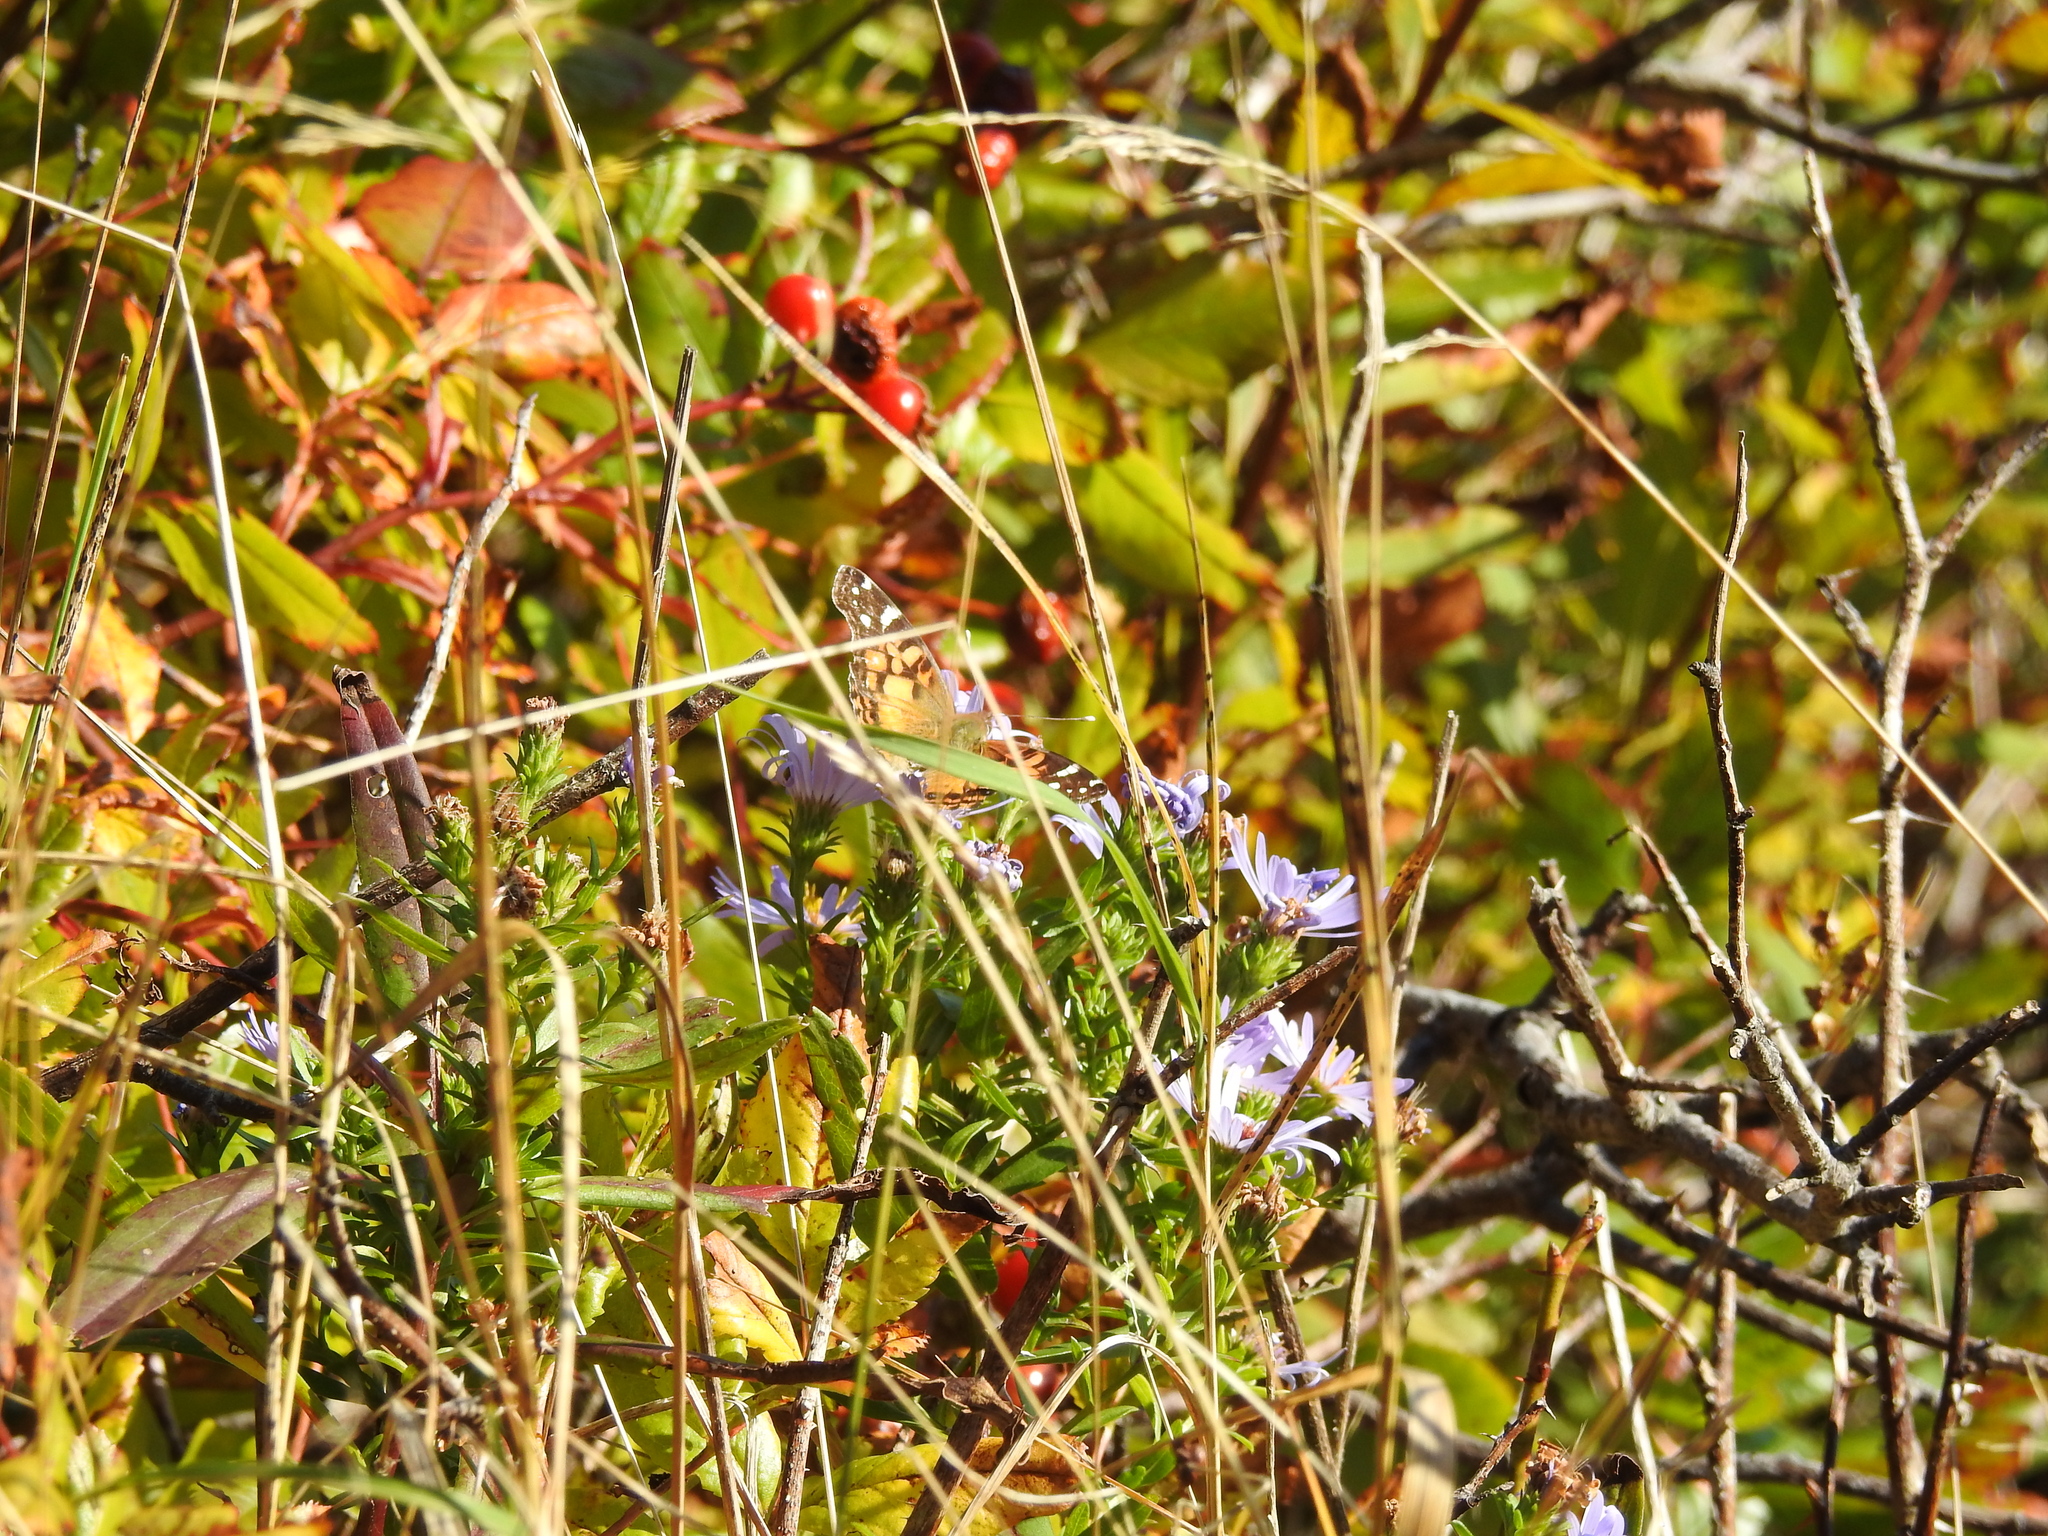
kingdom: Animalia
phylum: Arthropoda
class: Insecta
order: Lepidoptera
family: Nymphalidae
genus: Vanessa
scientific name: Vanessa virginiensis
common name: American lady
